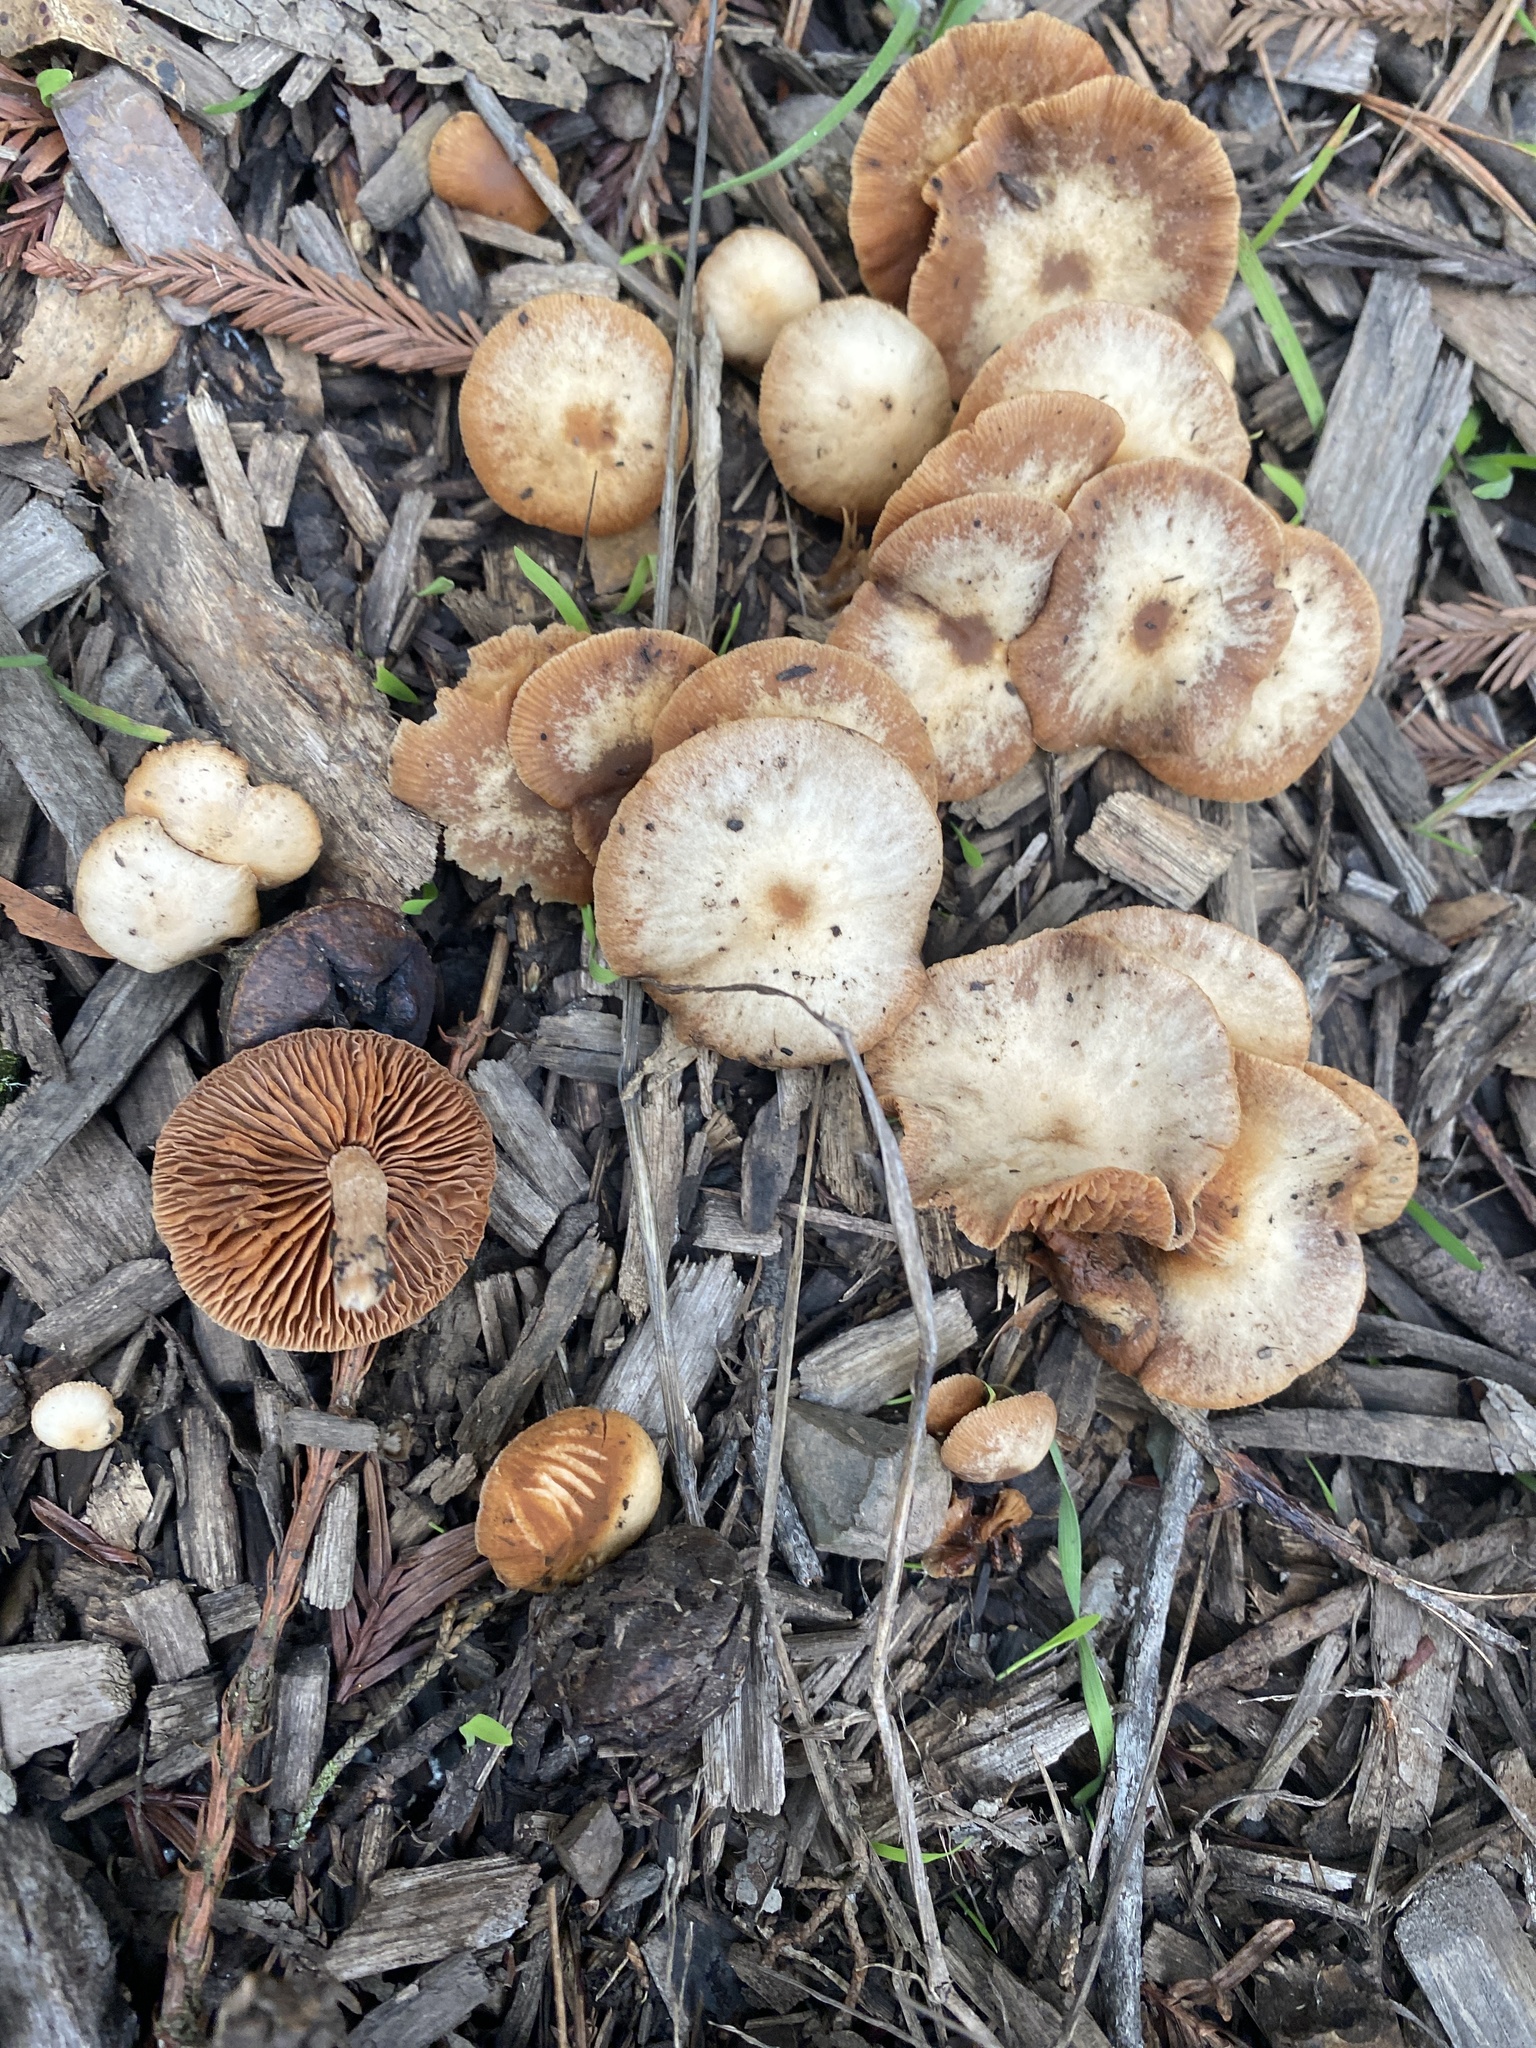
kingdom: Fungi
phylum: Basidiomycota
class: Agaricomycetes
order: Agaricales
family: Strophariaceae
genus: Hypholoma
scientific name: Hypholoma fasciculare
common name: Sulphur tuft
